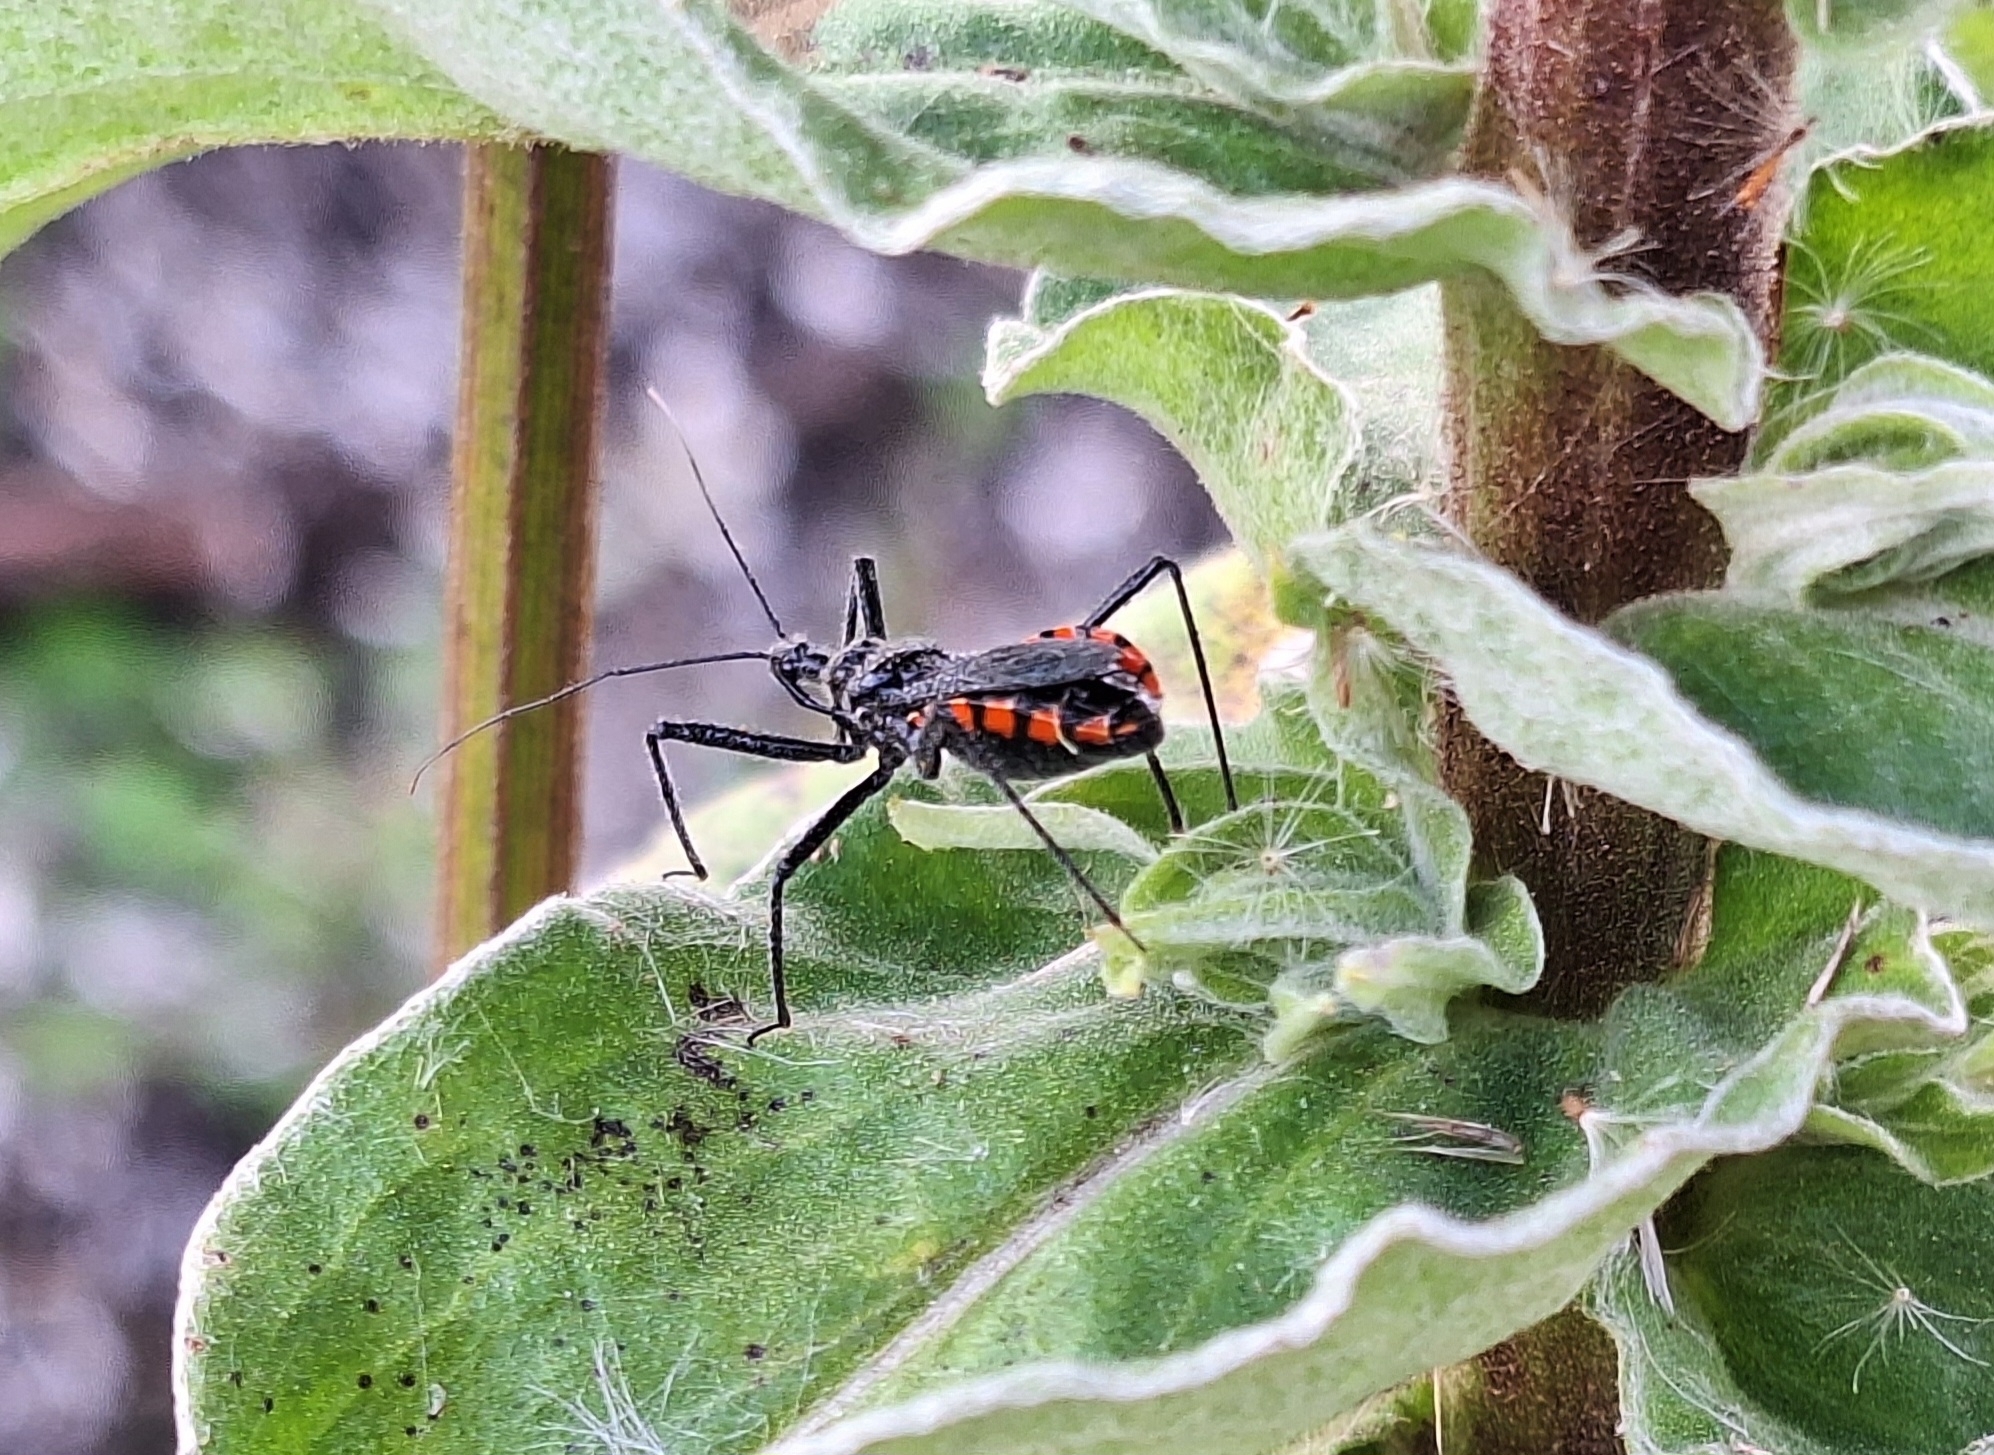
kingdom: Animalia
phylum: Arthropoda
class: Insecta
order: Hemiptera
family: Reduviidae
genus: Rhynocoris
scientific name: Rhynocoris tristis
